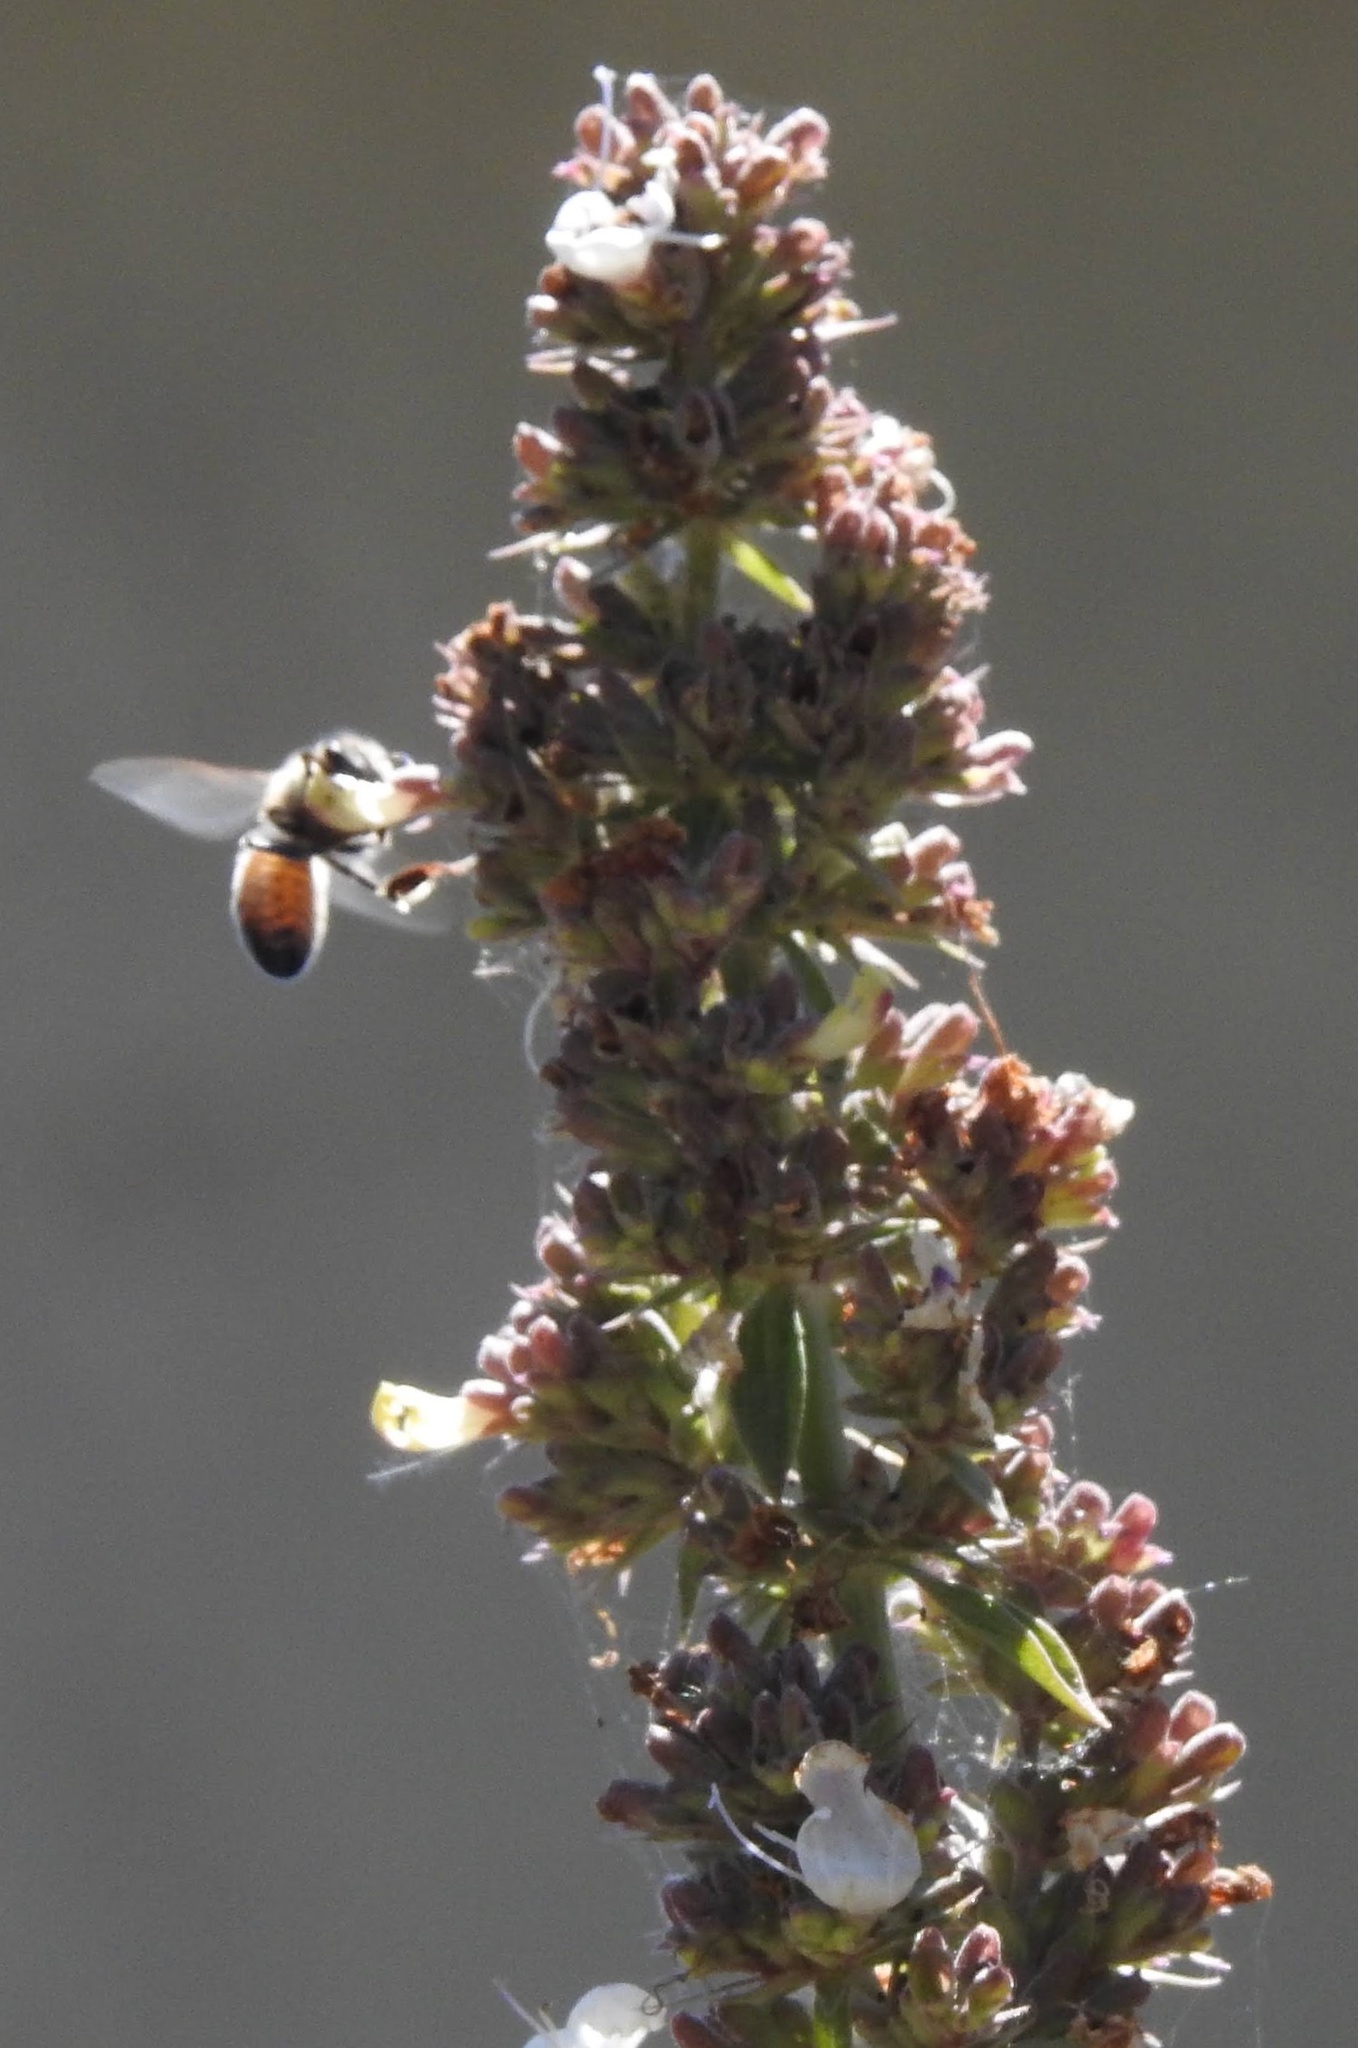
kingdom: Animalia
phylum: Arthropoda
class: Insecta
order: Hymenoptera
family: Apidae
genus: Apis
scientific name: Apis mellifera
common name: Honey bee
